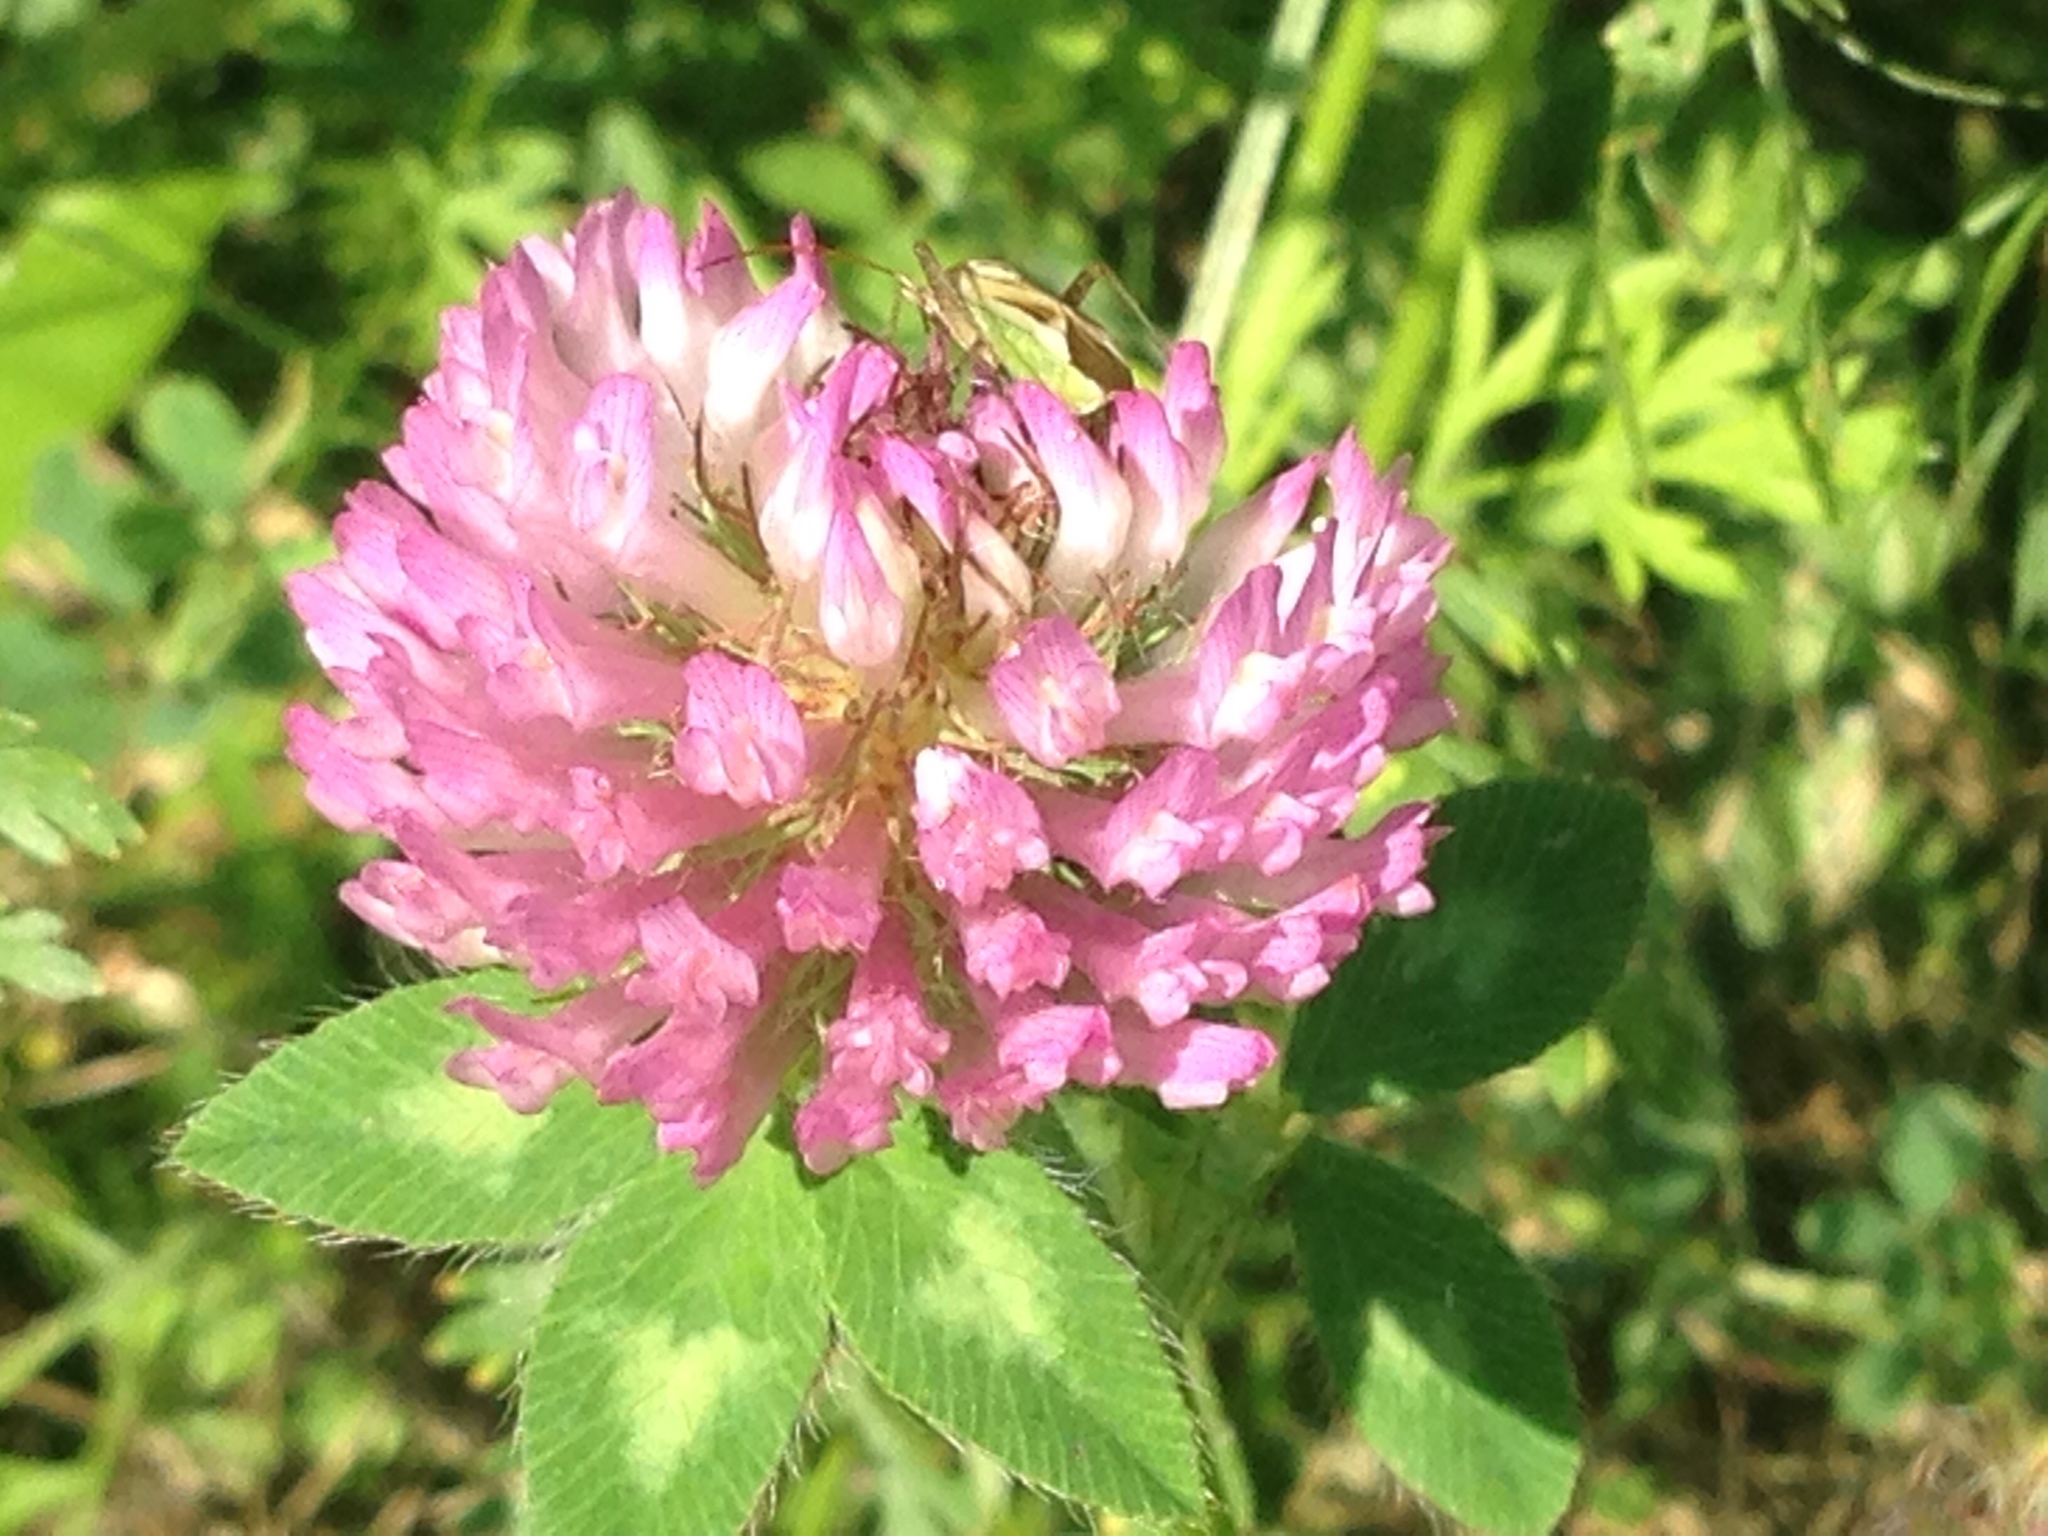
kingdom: Plantae
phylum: Tracheophyta
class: Magnoliopsida
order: Fabales
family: Fabaceae
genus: Trifolium
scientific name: Trifolium pratense
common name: Red clover
